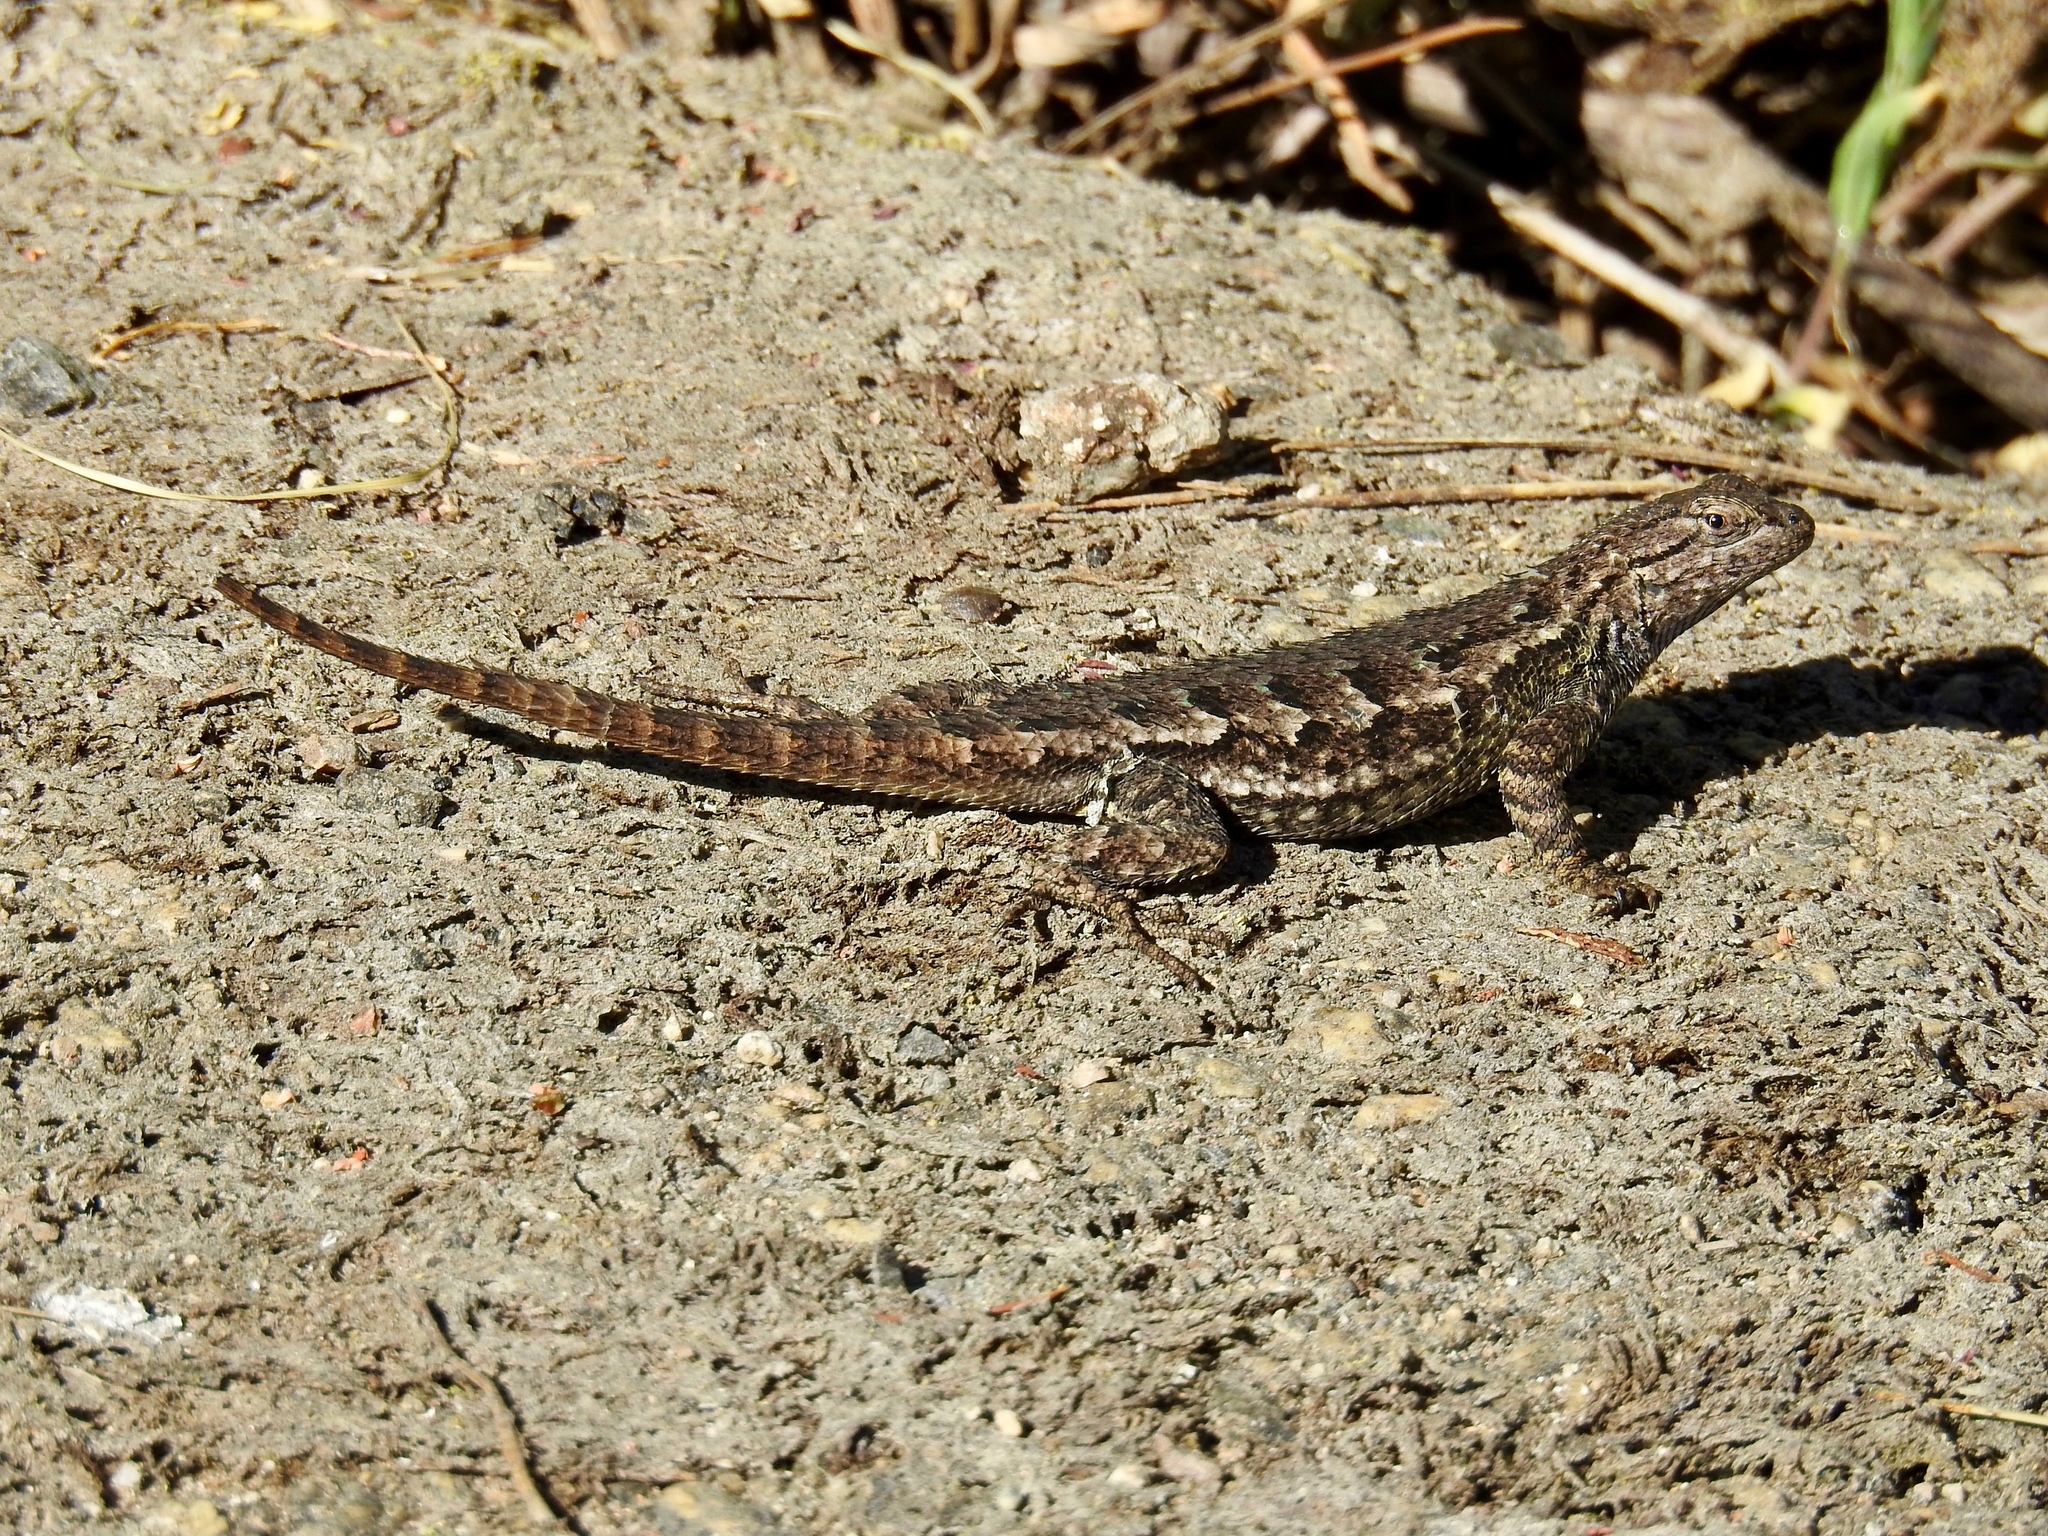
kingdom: Animalia
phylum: Chordata
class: Squamata
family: Phrynosomatidae
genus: Sceloporus
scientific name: Sceloporus occidentalis
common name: Western fence lizard
